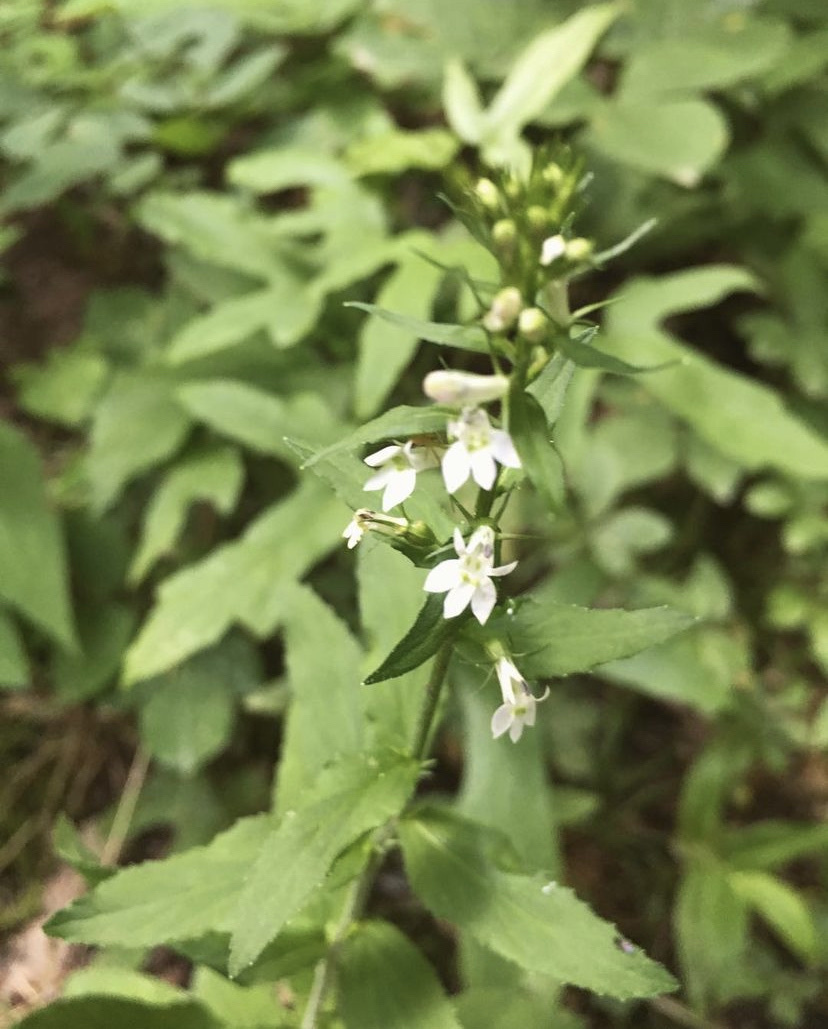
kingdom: Plantae
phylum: Tracheophyta
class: Magnoliopsida
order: Asterales
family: Campanulaceae
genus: Lobelia
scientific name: Lobelia inflata
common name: Indian tobacco
